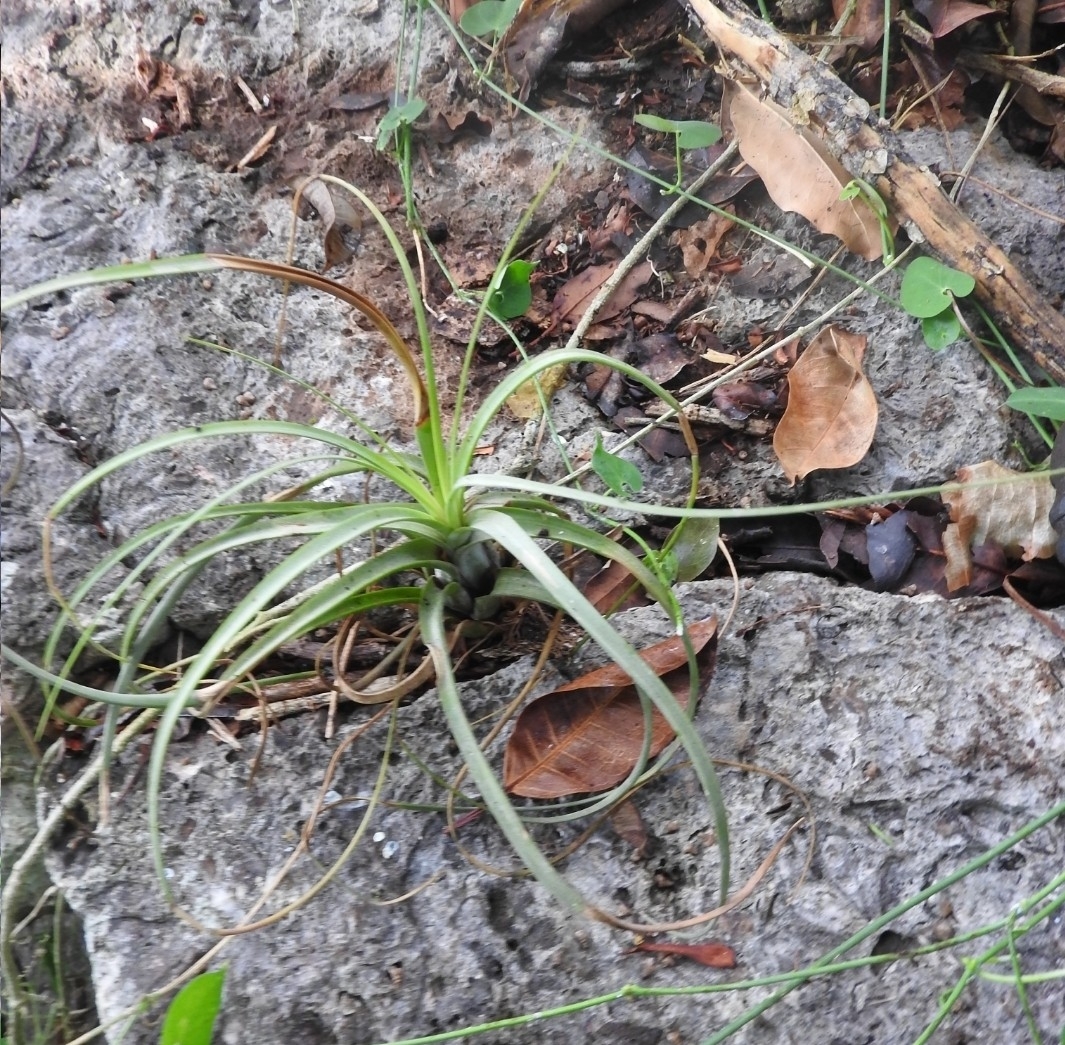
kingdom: Plantae
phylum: Tracheophyta
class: Liliopsida
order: Poales
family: Bromeliaceae
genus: Tillandsia
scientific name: Tillandsia fasciculata
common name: Giant airplant
